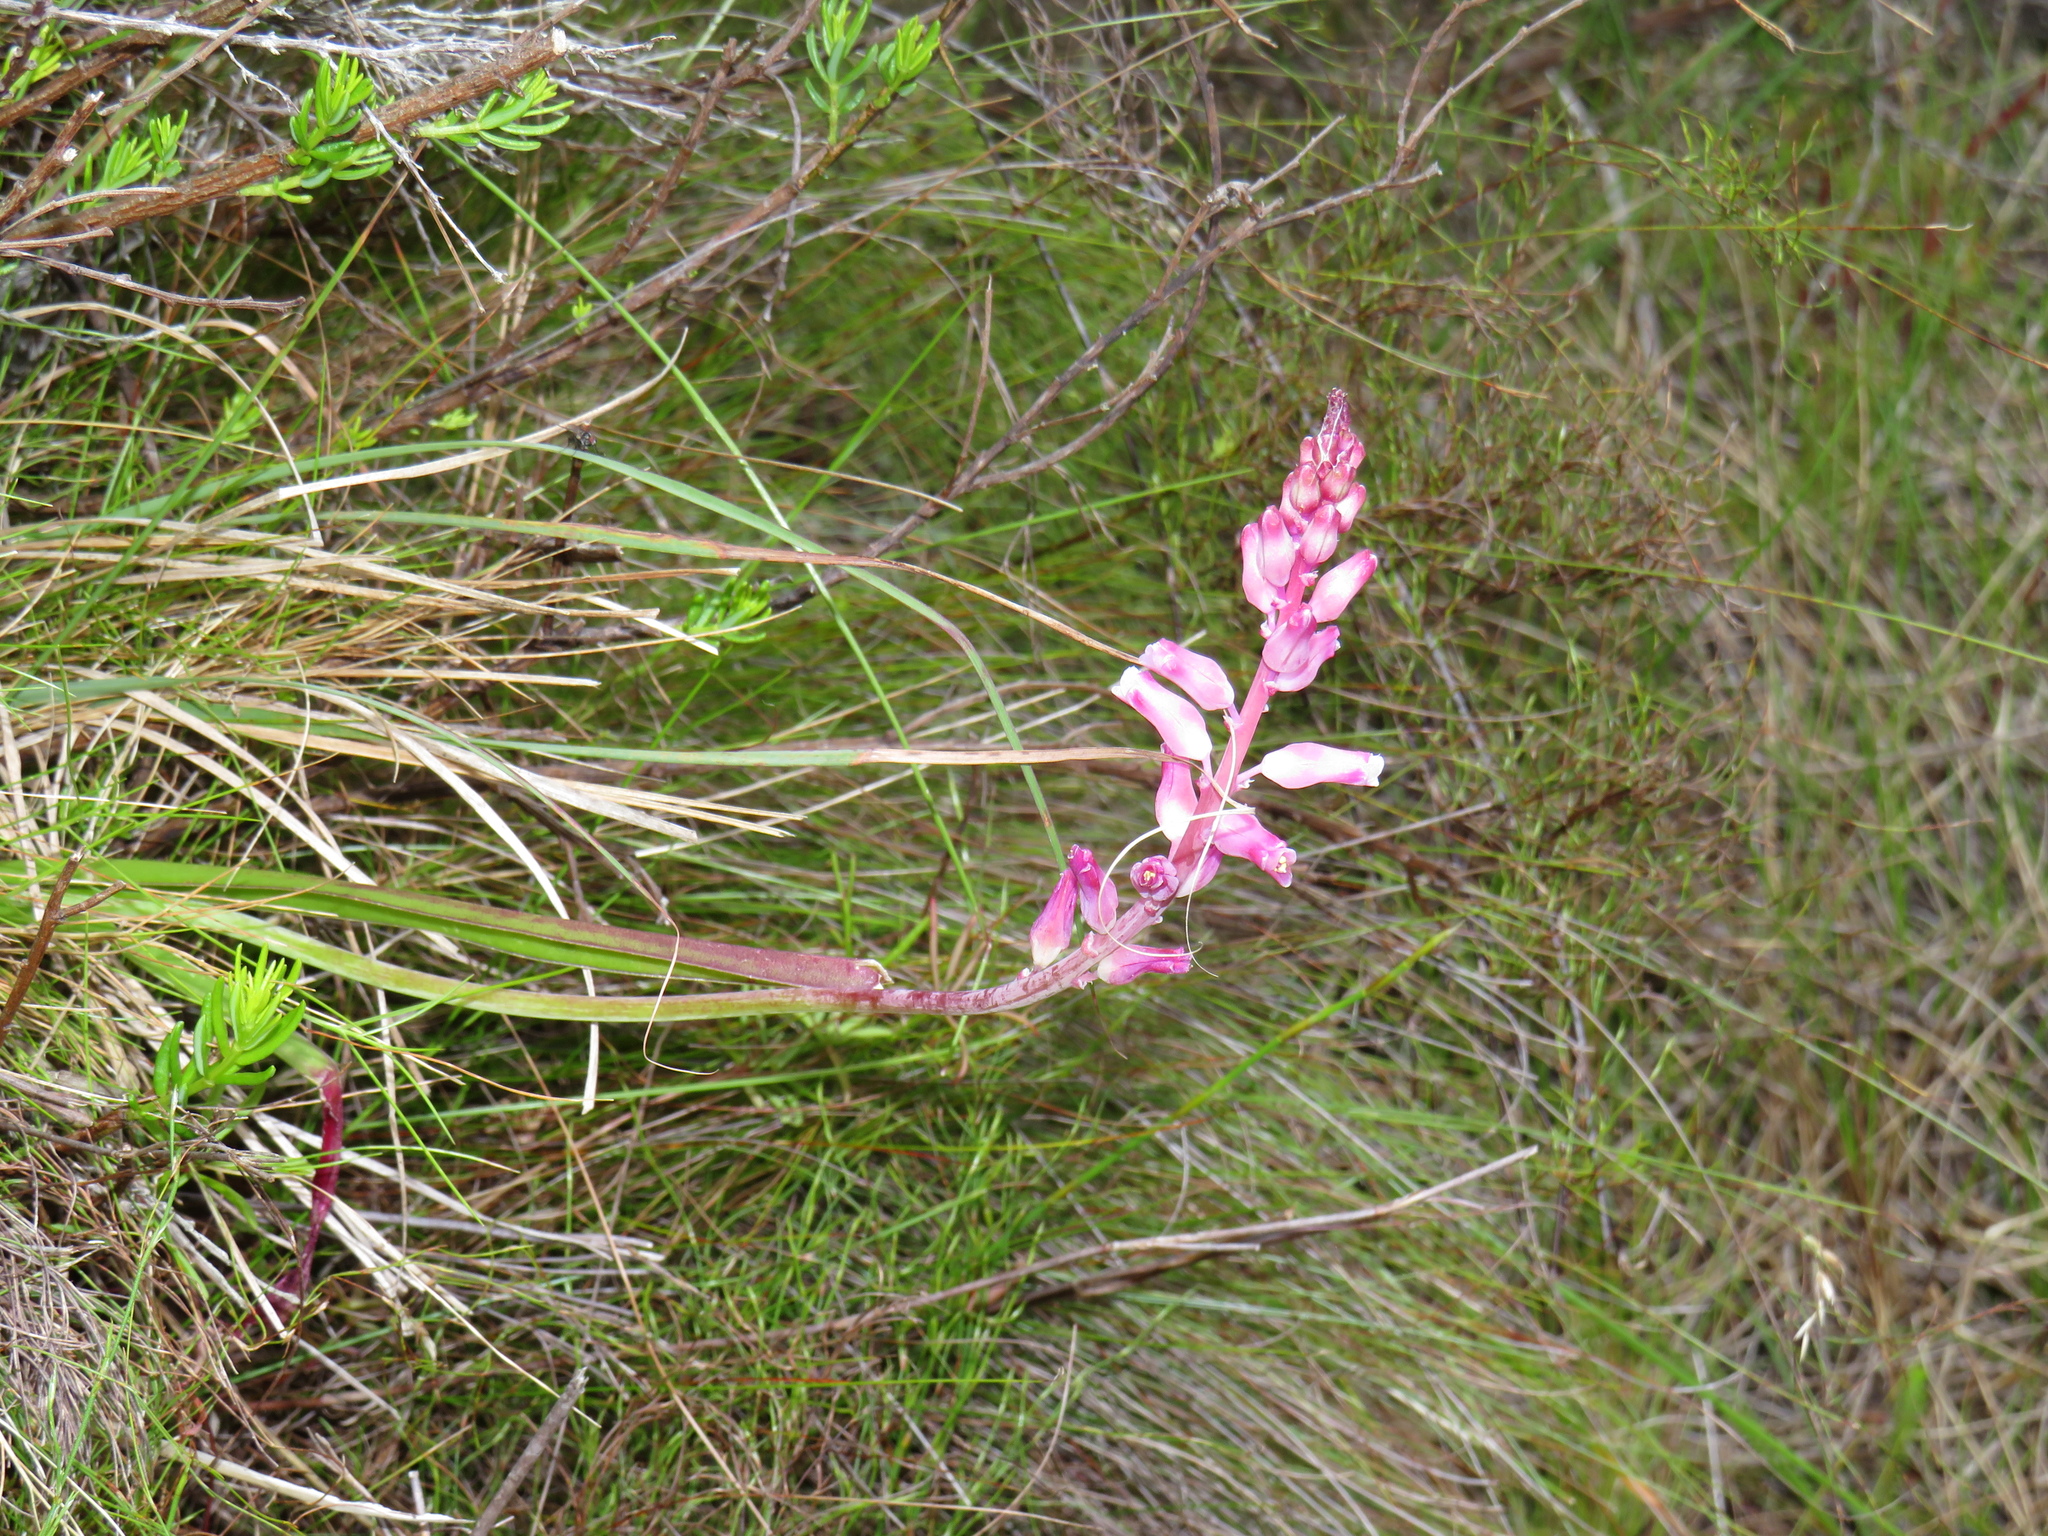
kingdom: Plantae
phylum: Tracheophyta
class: Liliopsida
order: Asparagales
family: Asparagaceae
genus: Lachenalia
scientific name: Lachenalia rosea
